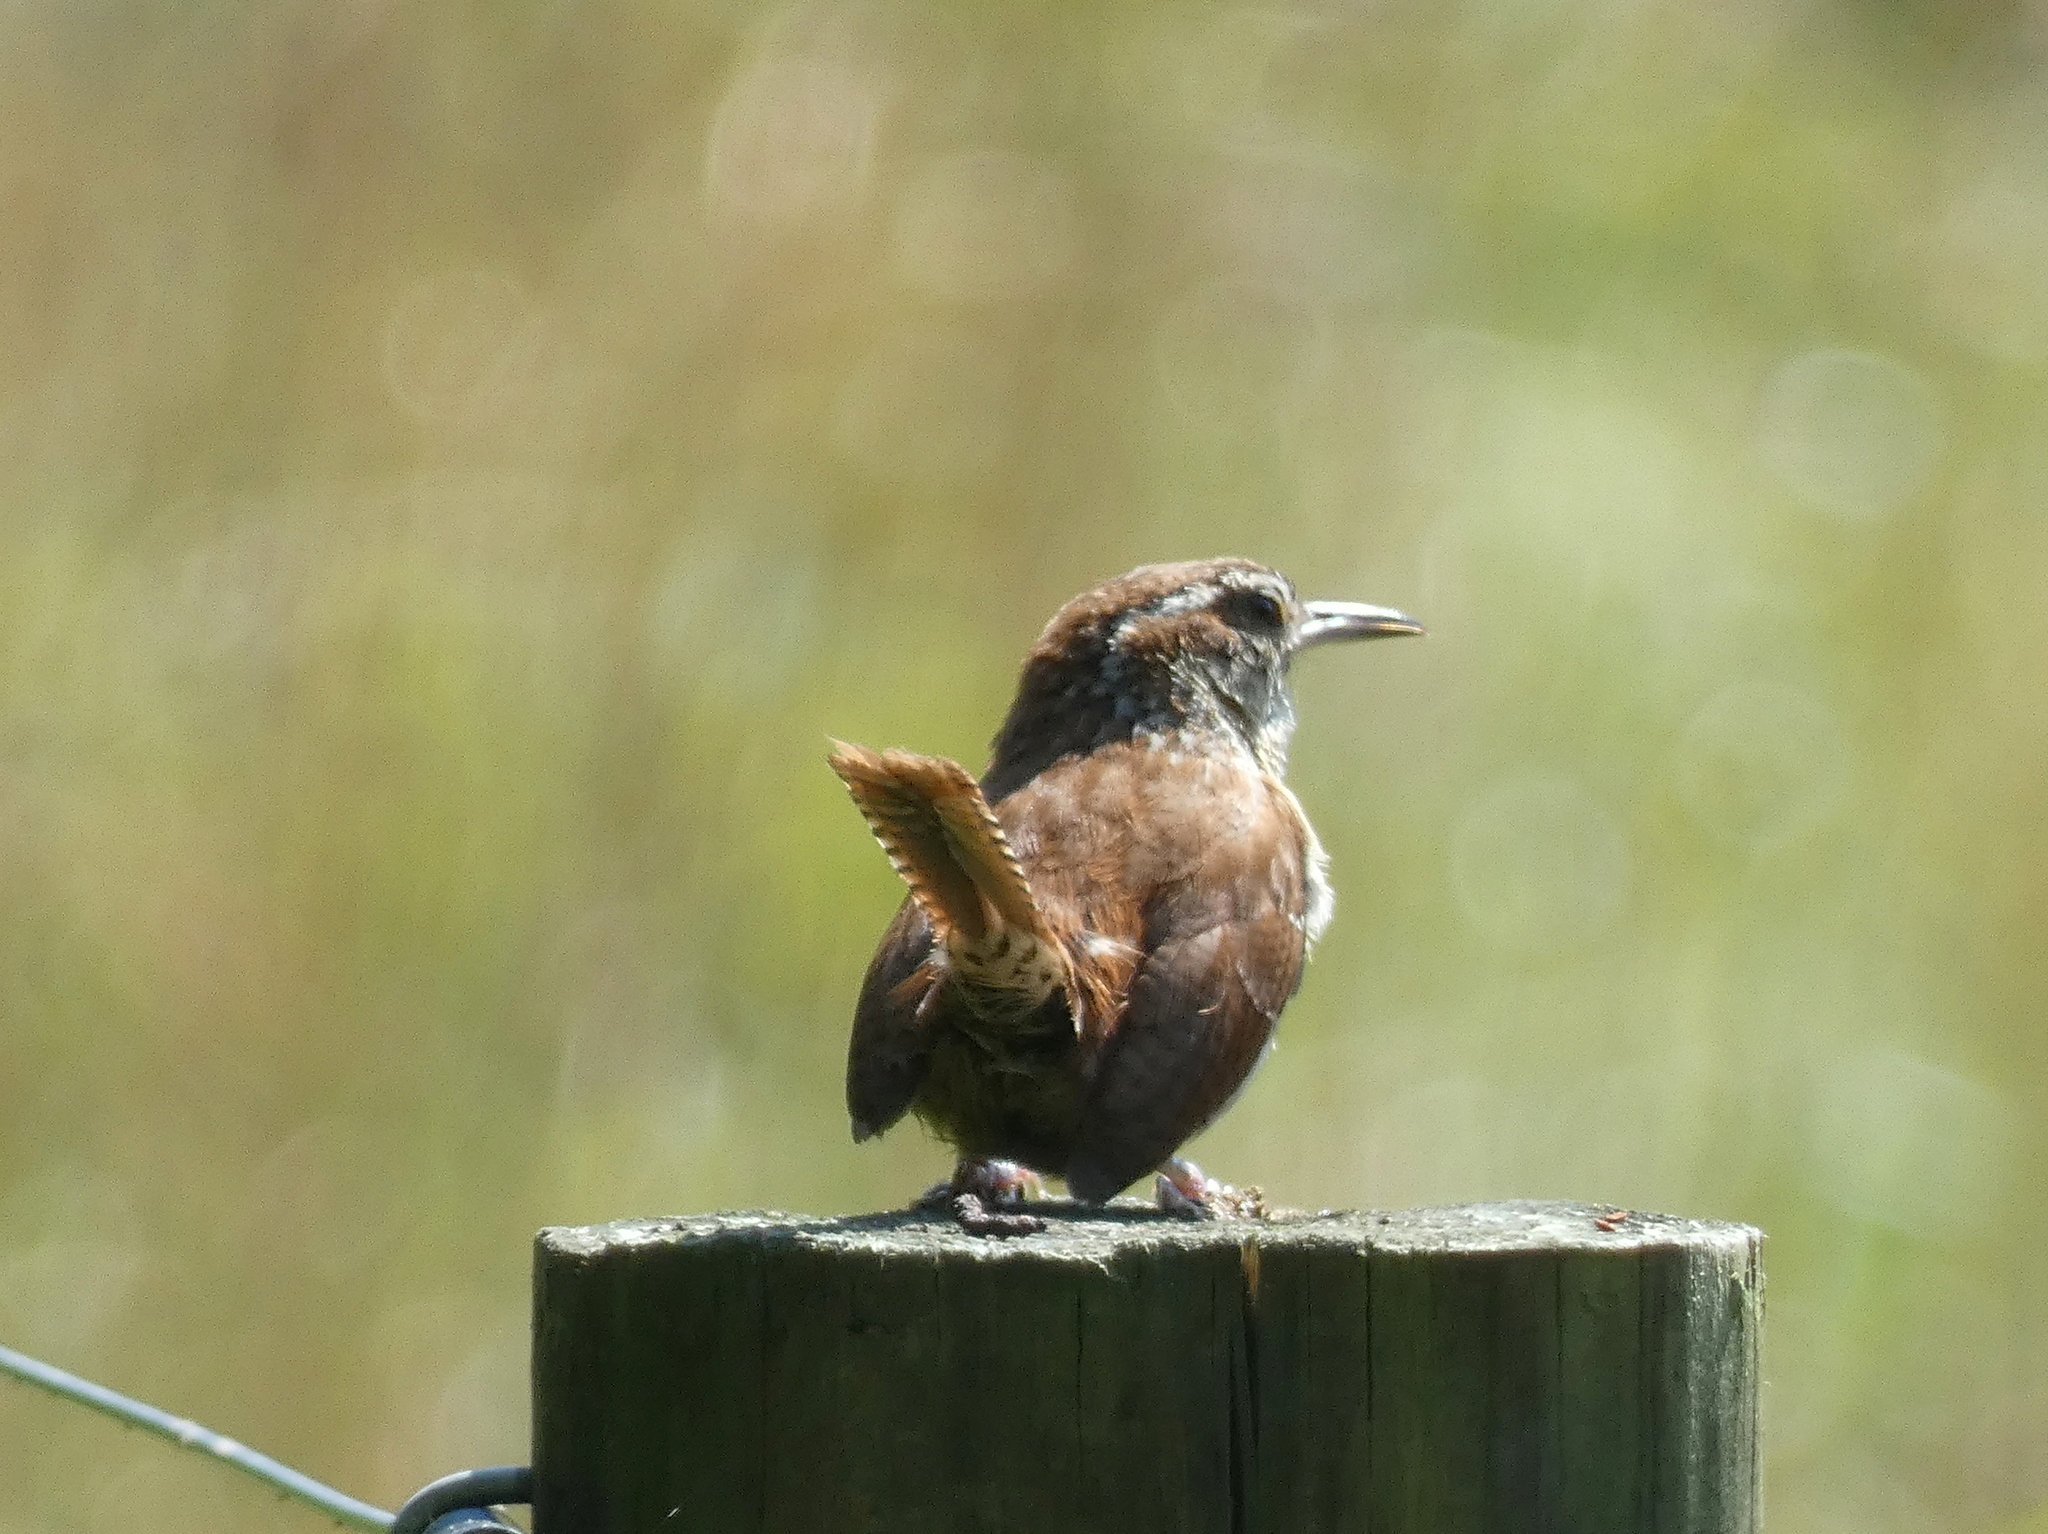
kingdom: Animalia
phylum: Chordata
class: Aves
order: Passeriformes
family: Troglodytidae
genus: Thryothorus
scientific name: Thryothorus ludovicianus
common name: Carolina wren
